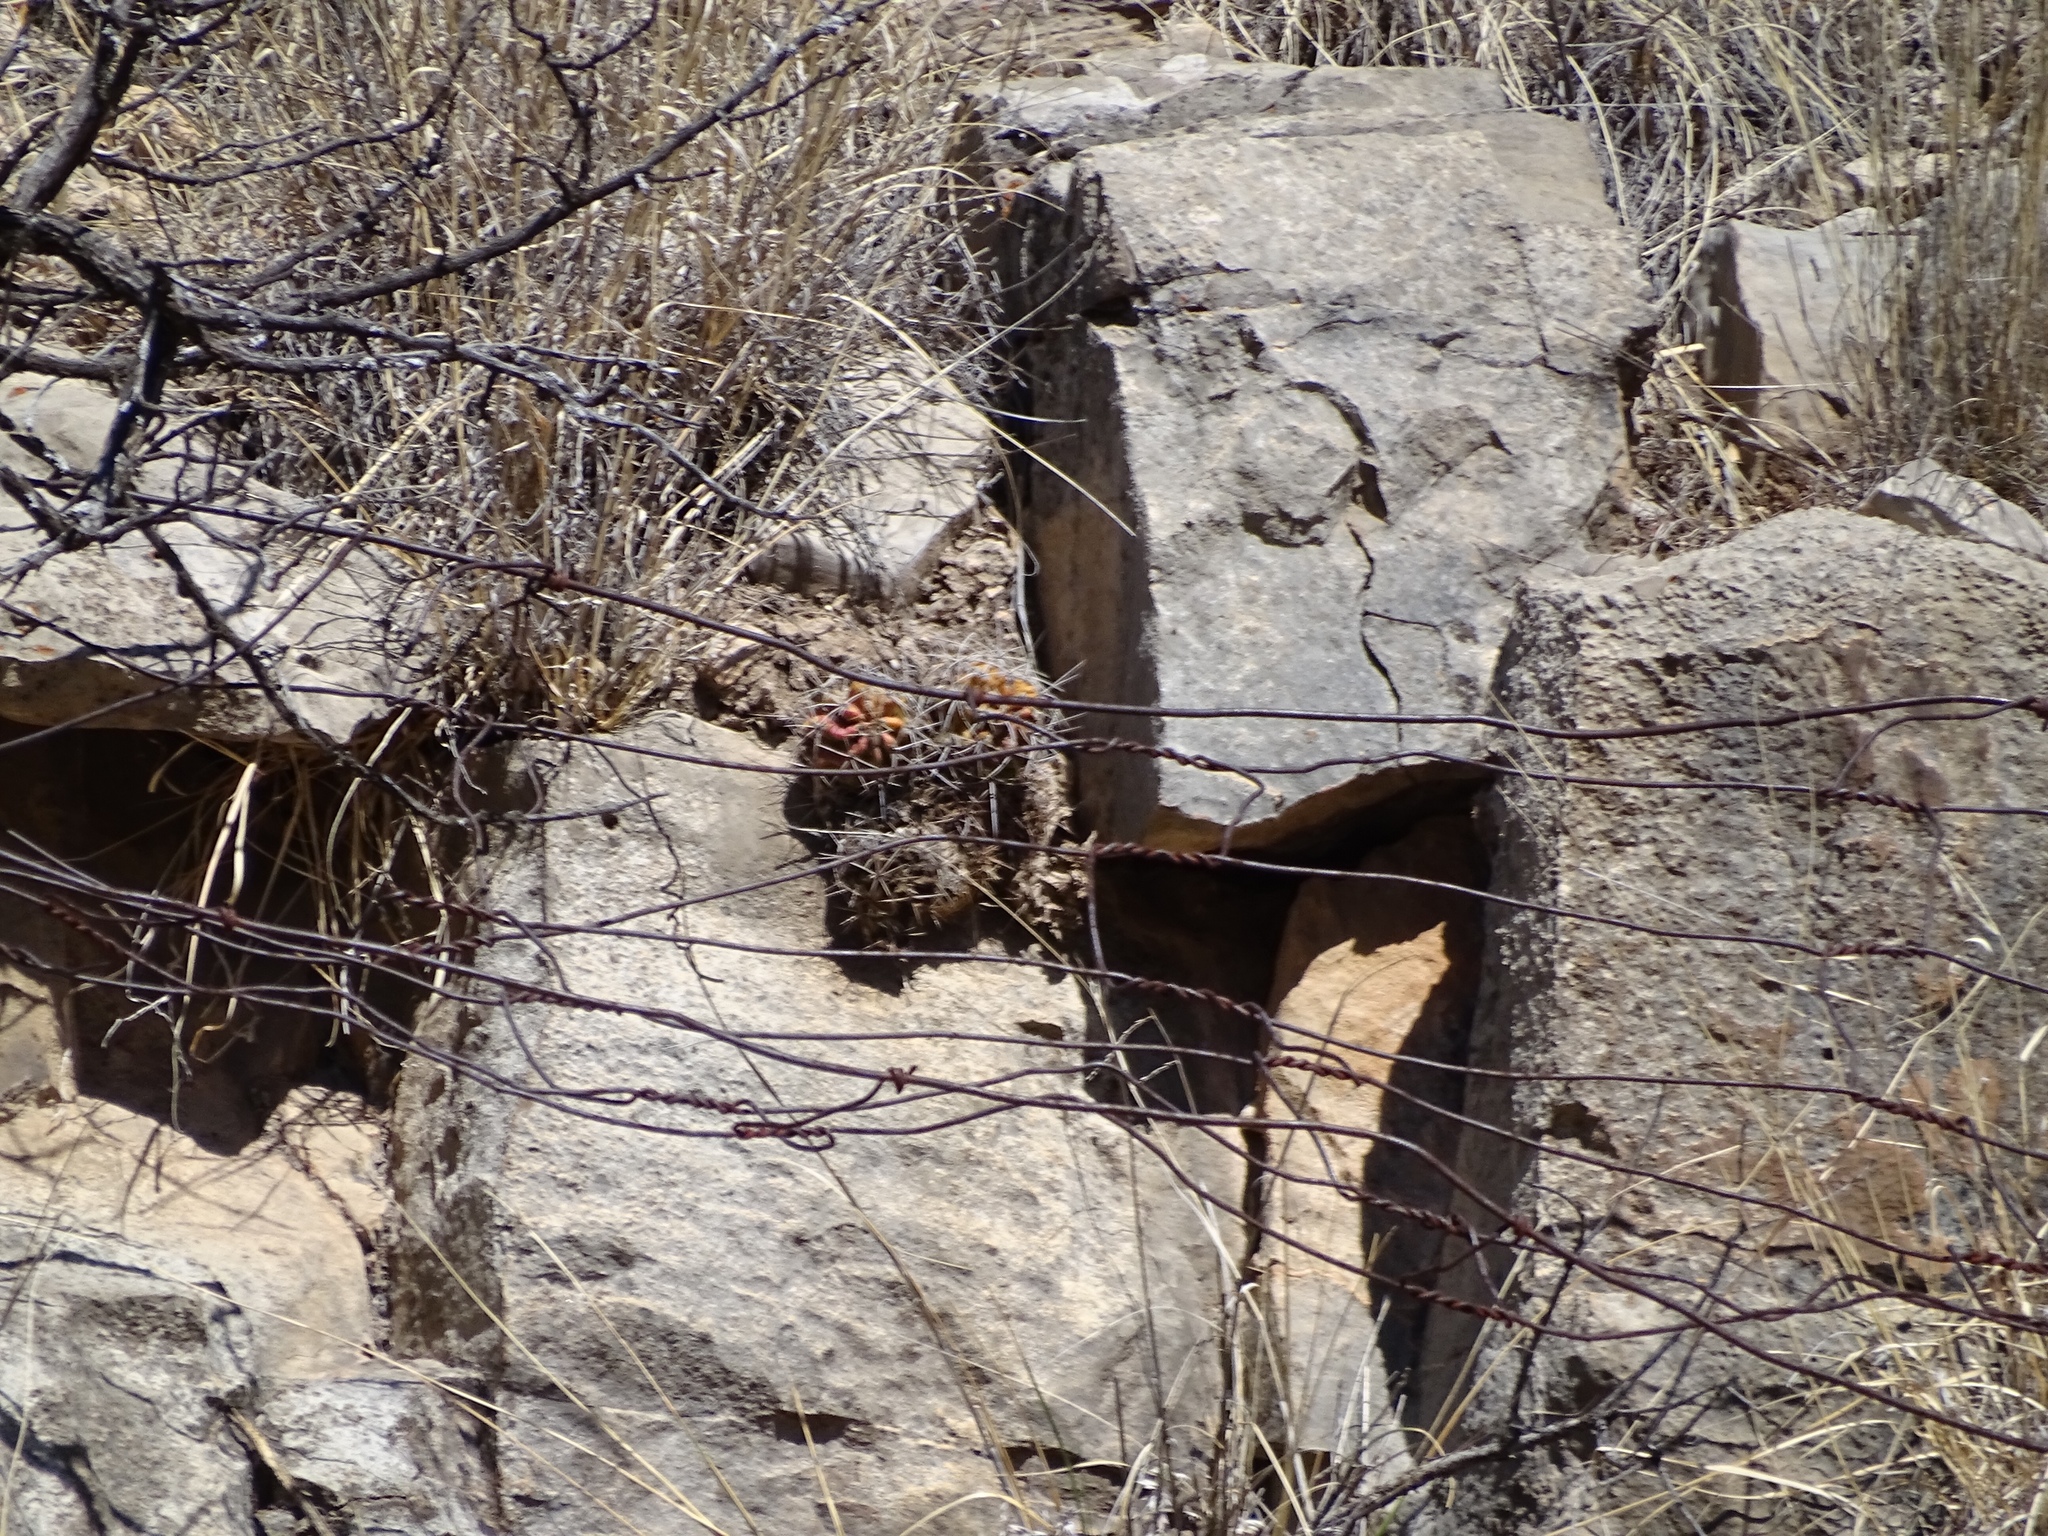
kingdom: Plantae
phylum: Tracheophyta
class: Magnoliopsida
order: Caryophyllales
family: Cactaceae
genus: Echinocereus
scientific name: Echinocereus coccineus
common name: Scarlet hedgehog cactus
